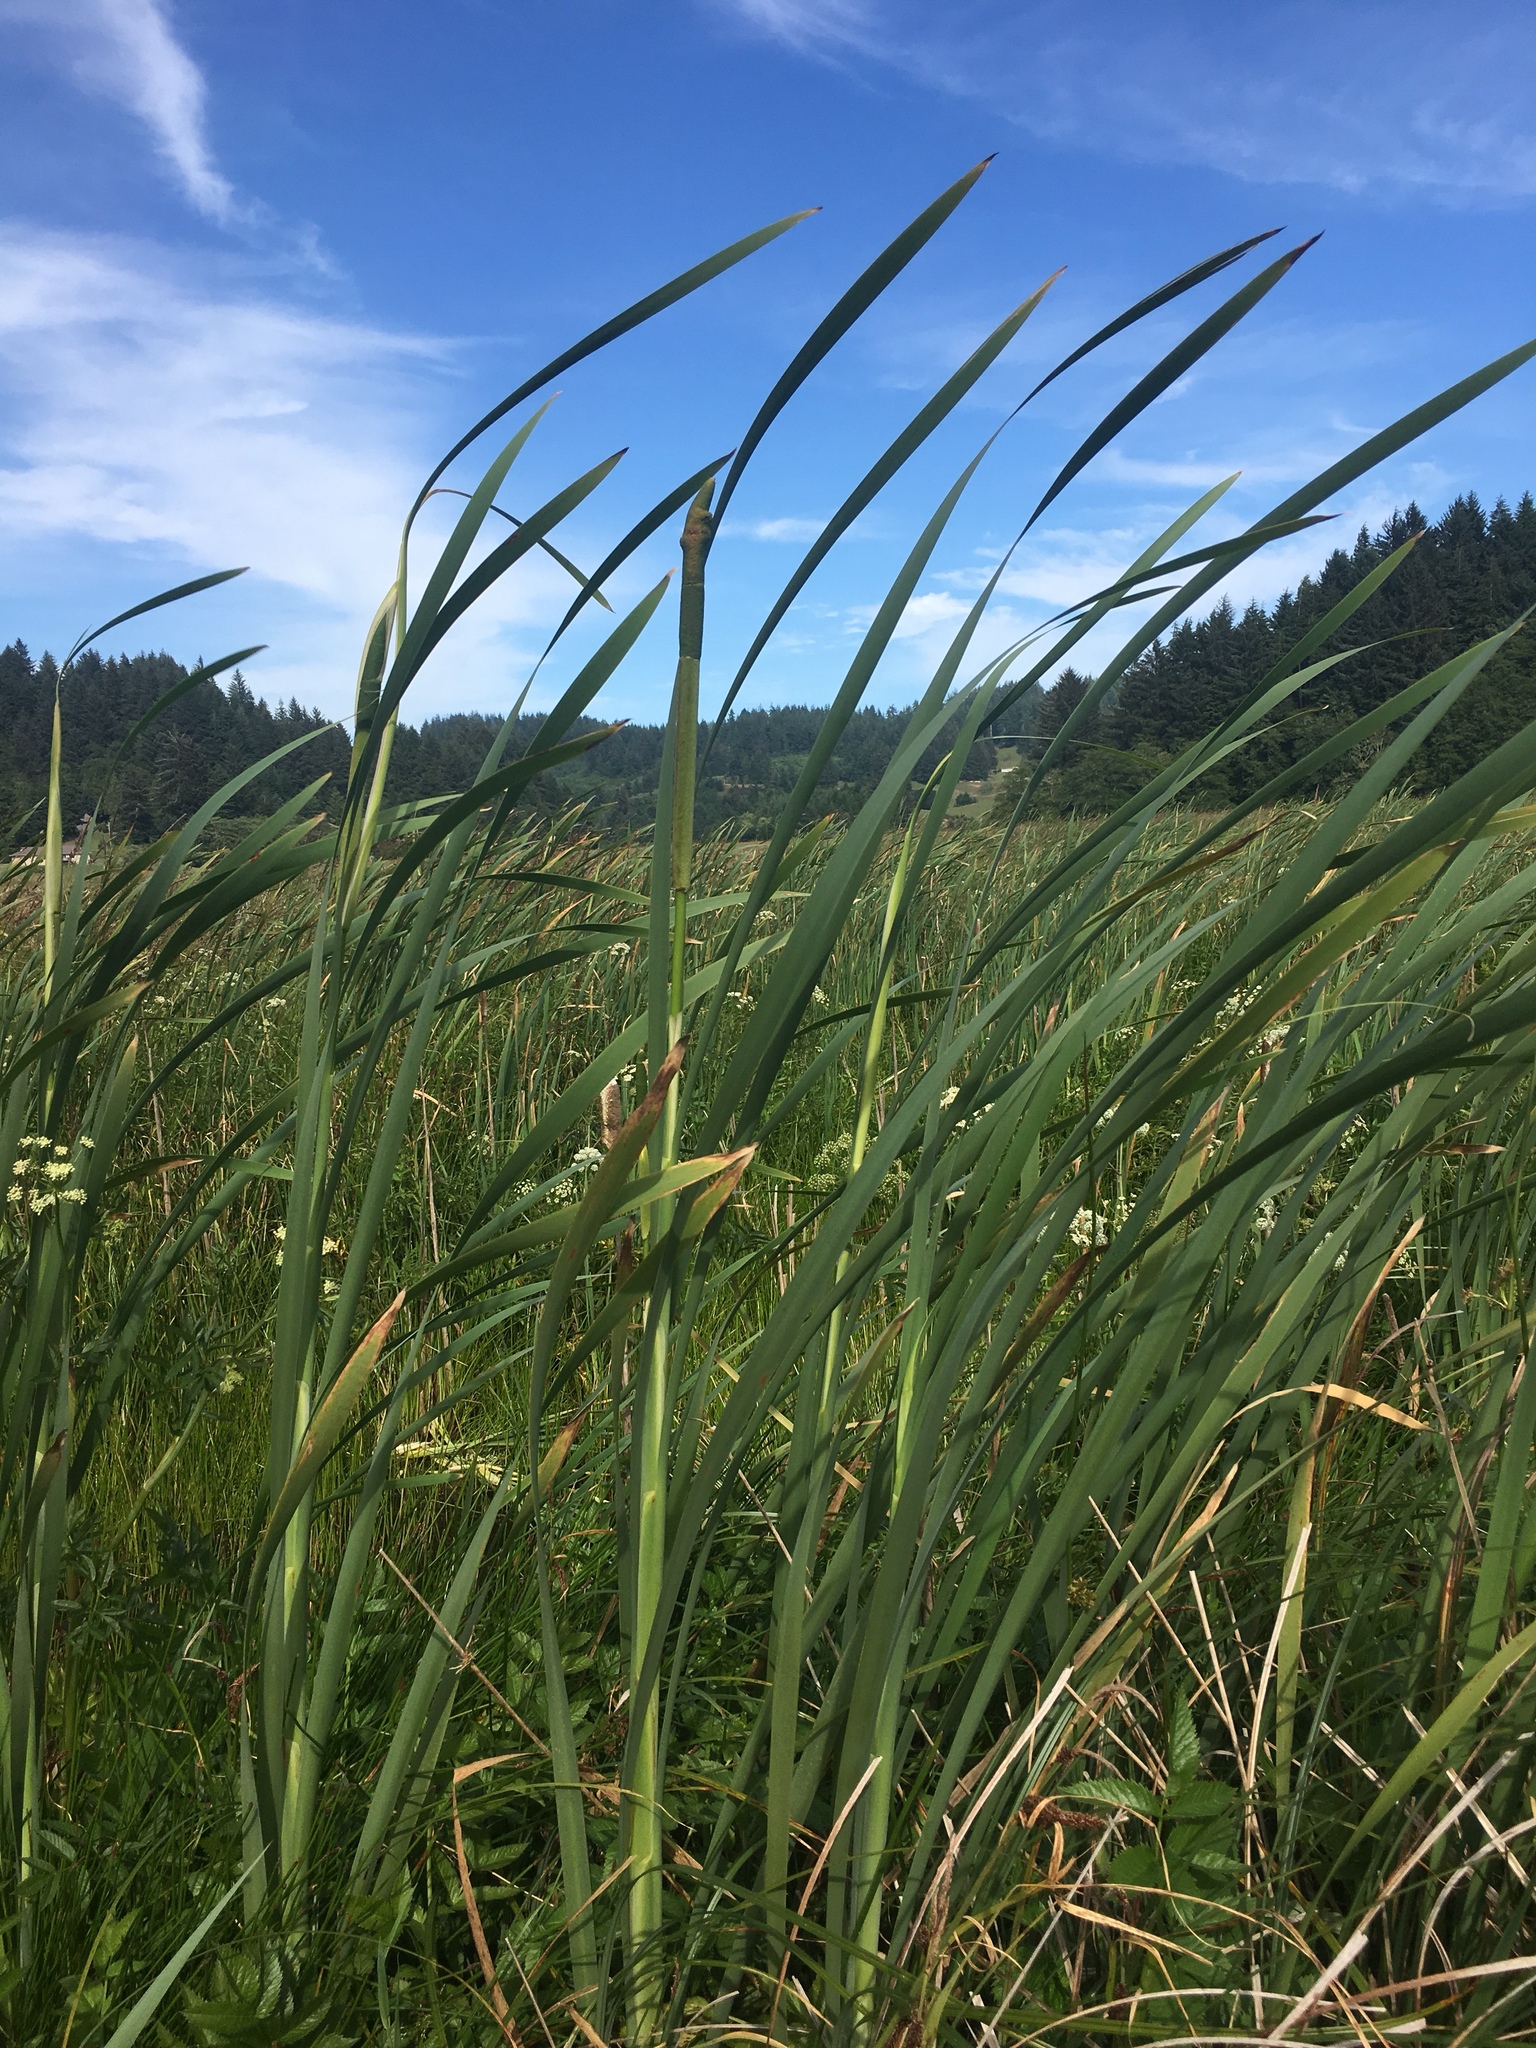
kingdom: Plantae
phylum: Tracheophyta
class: Liliopsida
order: Poales
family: Typhaceae
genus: Typha
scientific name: Typha latifolia
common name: Broadleaf cattail
